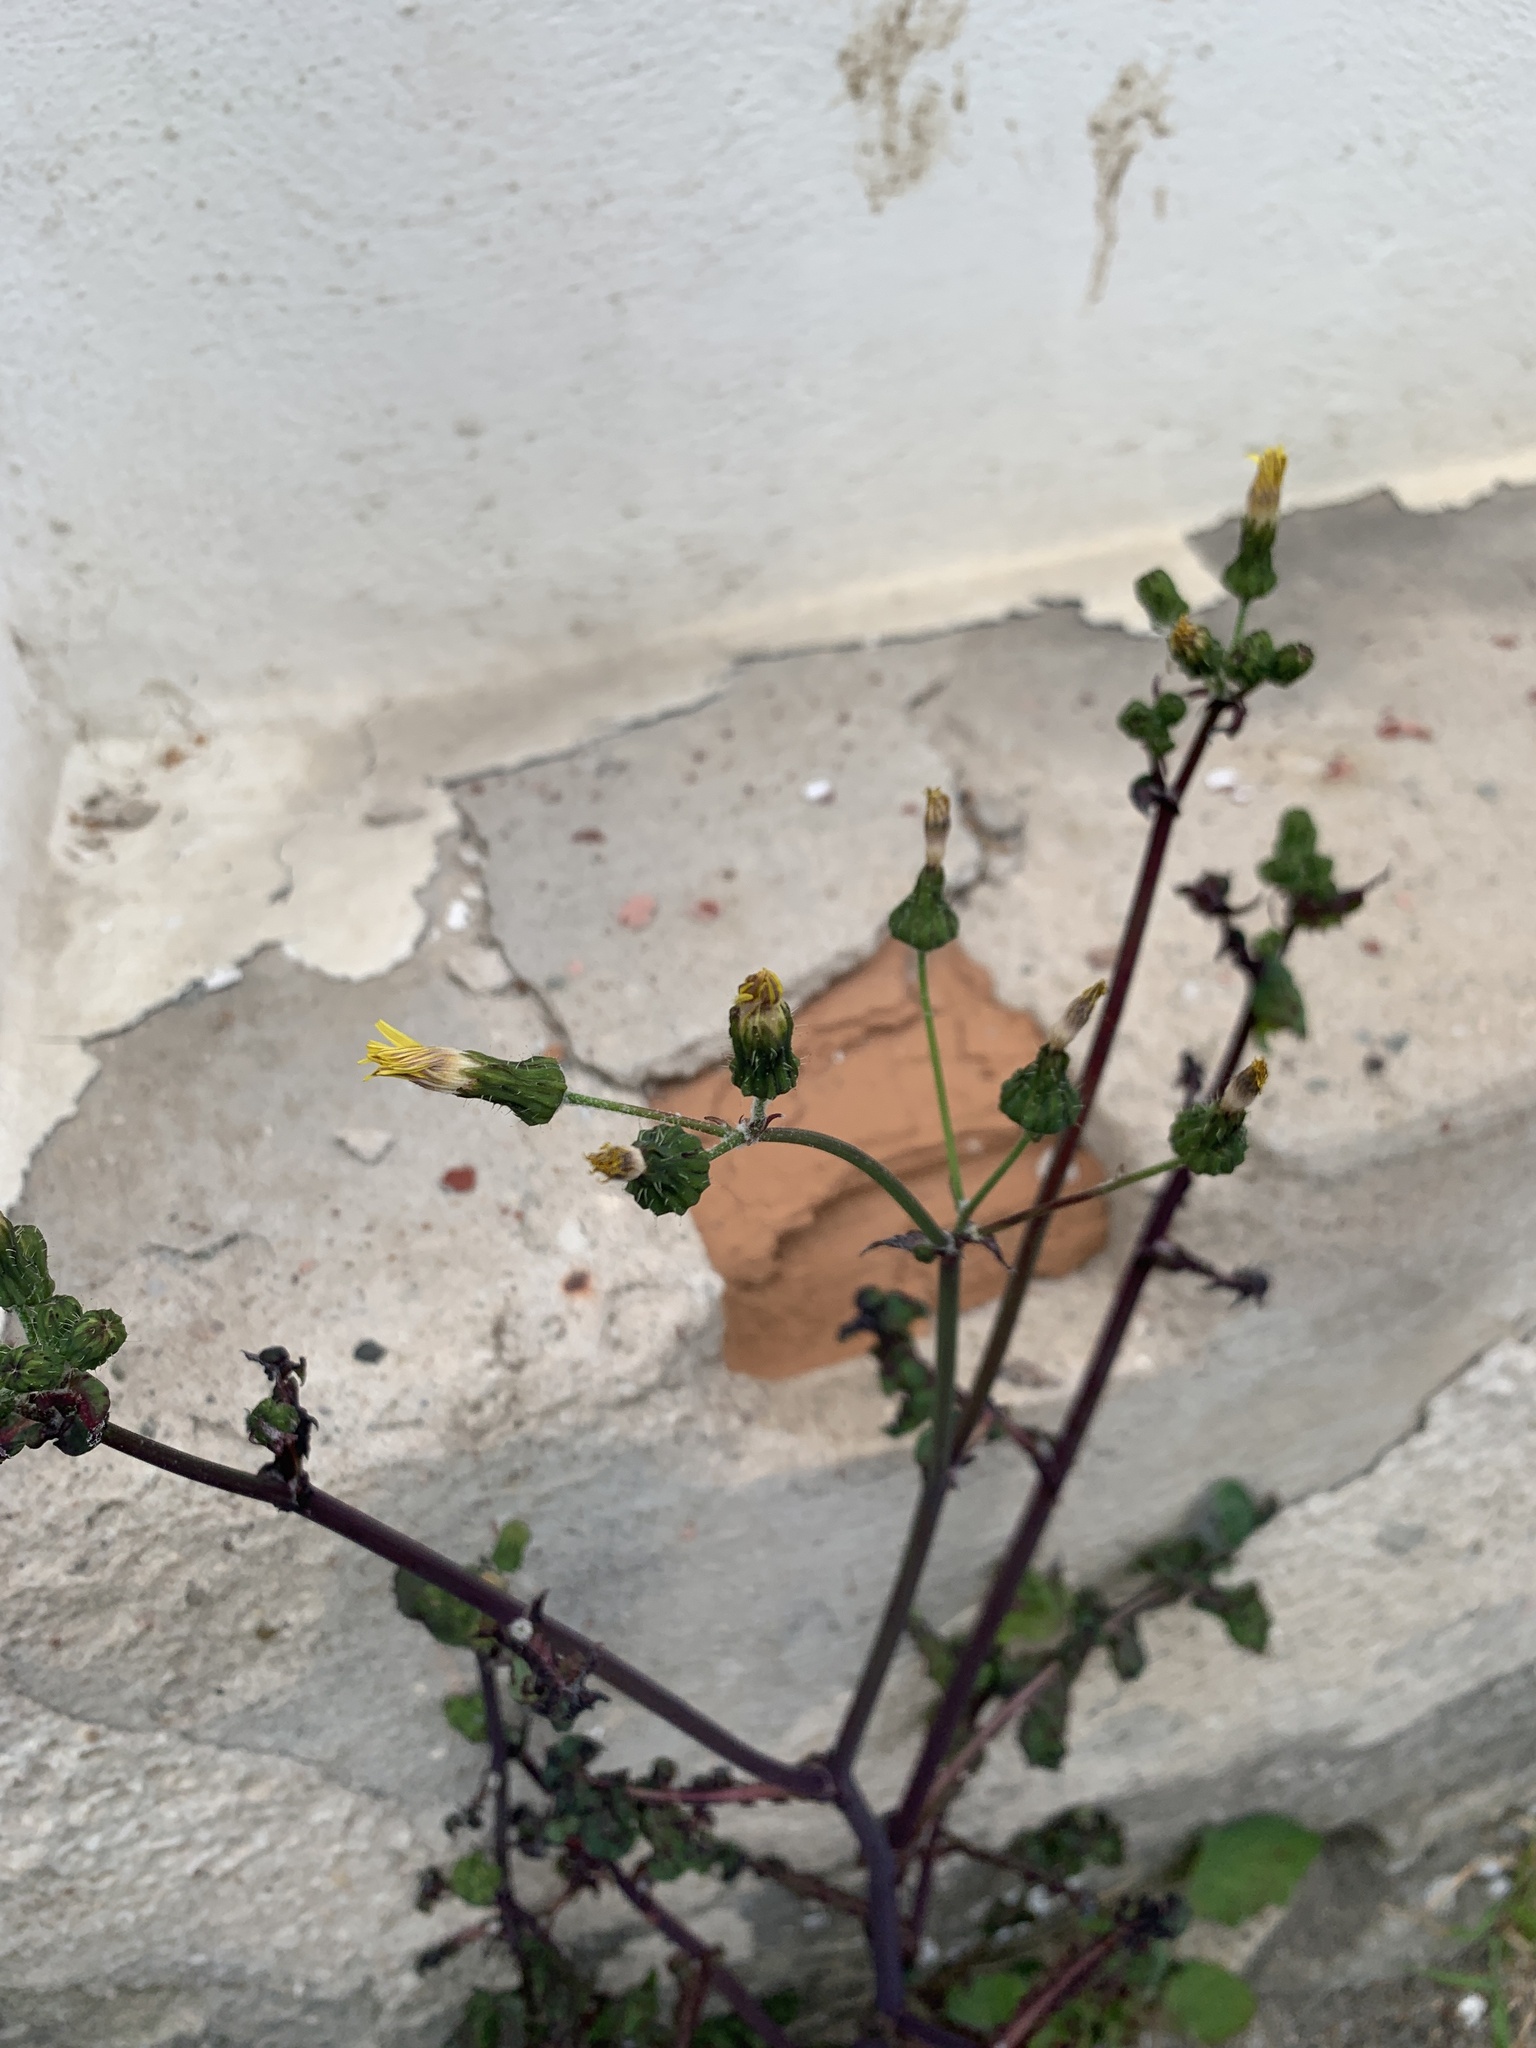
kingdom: Plantae
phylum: Tracheophyta
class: Magnoliopsida
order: Asterales
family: Asteraceae
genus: Sonchus
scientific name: Sonchus oleraceus
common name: Common sowthistle
